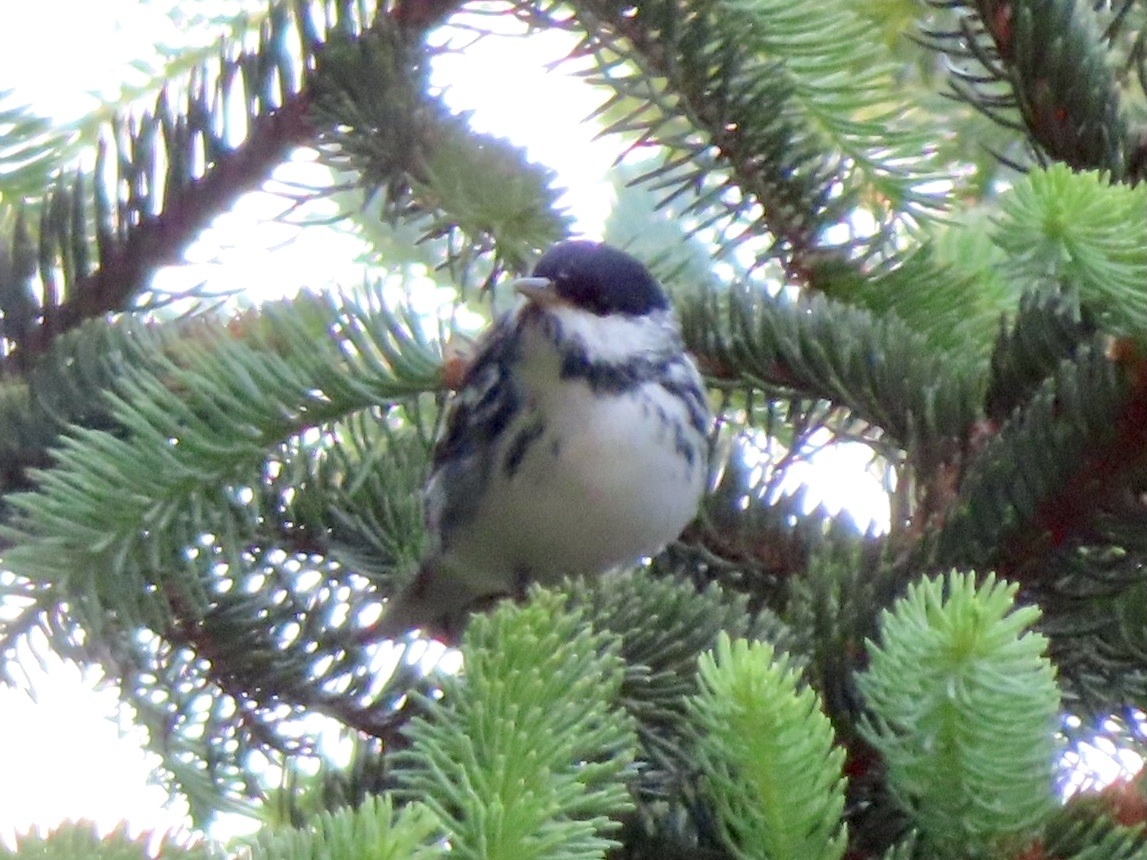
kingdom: Animalia
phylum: Chordata
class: Aves
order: Passeriformes
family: Parulidae
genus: Setophaga
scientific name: Setophaga striata
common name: Blackpoll warbler
